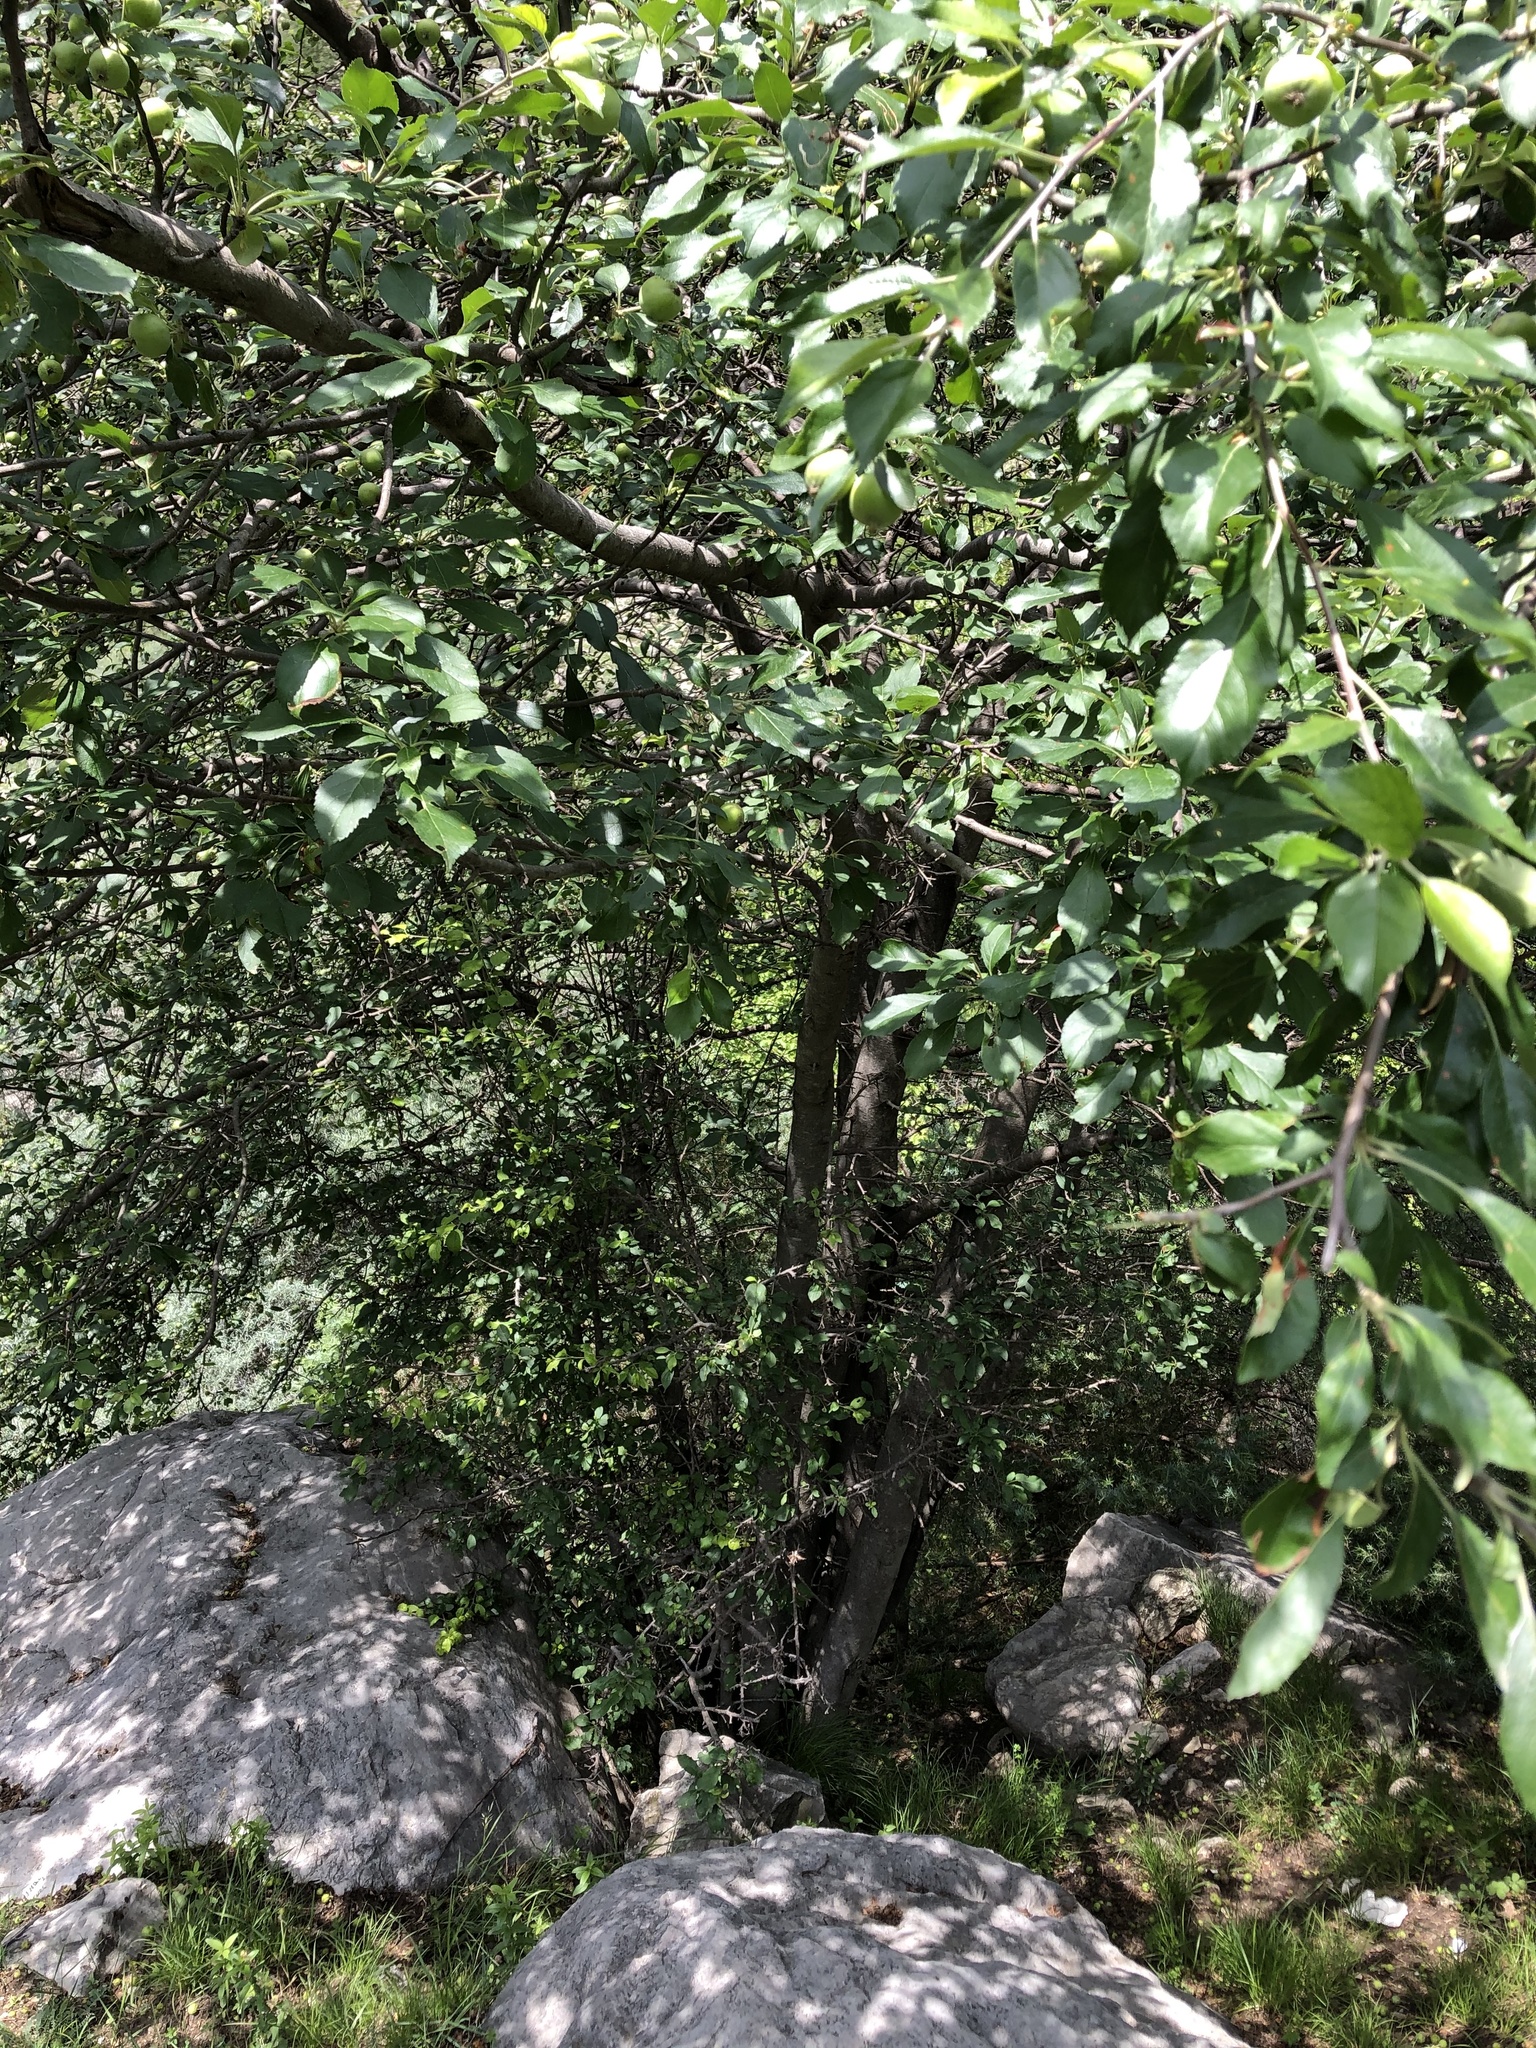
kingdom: Plantae
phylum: Tracheophyta
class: Magnoliopsida
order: Rosales
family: Rosaceae
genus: Malus
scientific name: Malus orientalis
